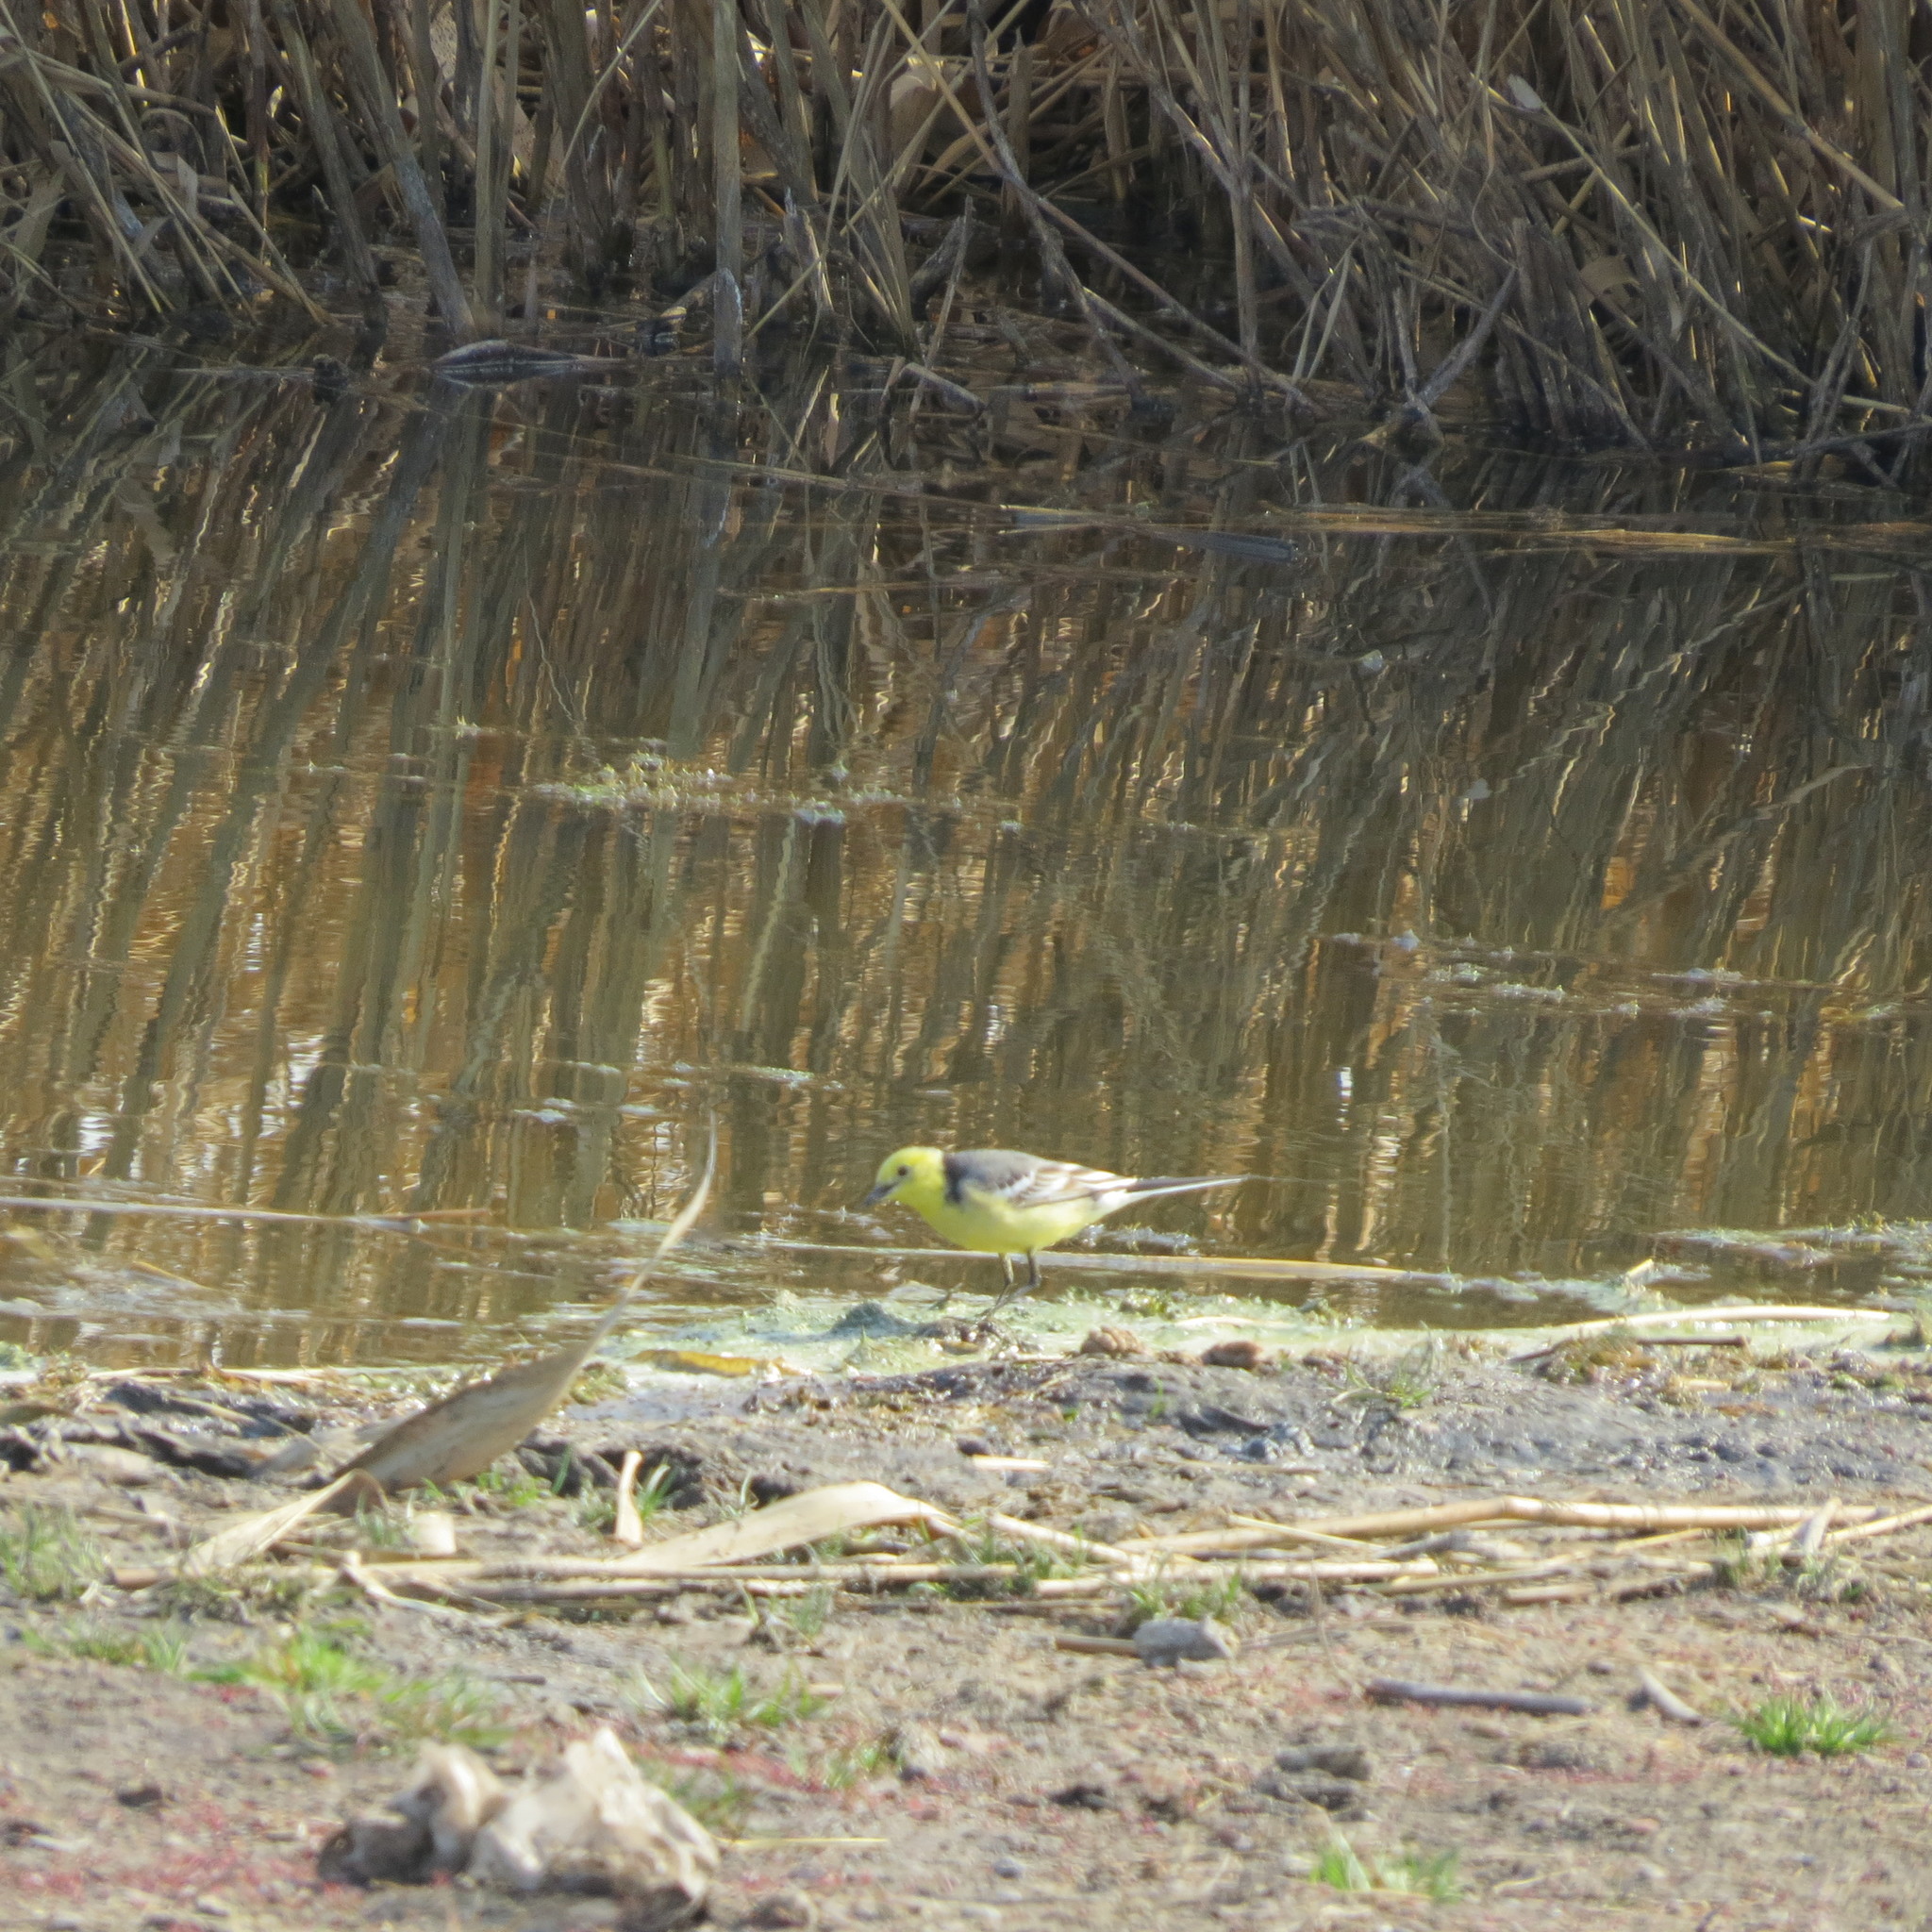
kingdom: Animalia
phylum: Chordata
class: Aves
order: Passeriformes
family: Motacillidae
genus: Motacilla
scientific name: Motacilla citreola
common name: Citrine wagtail
